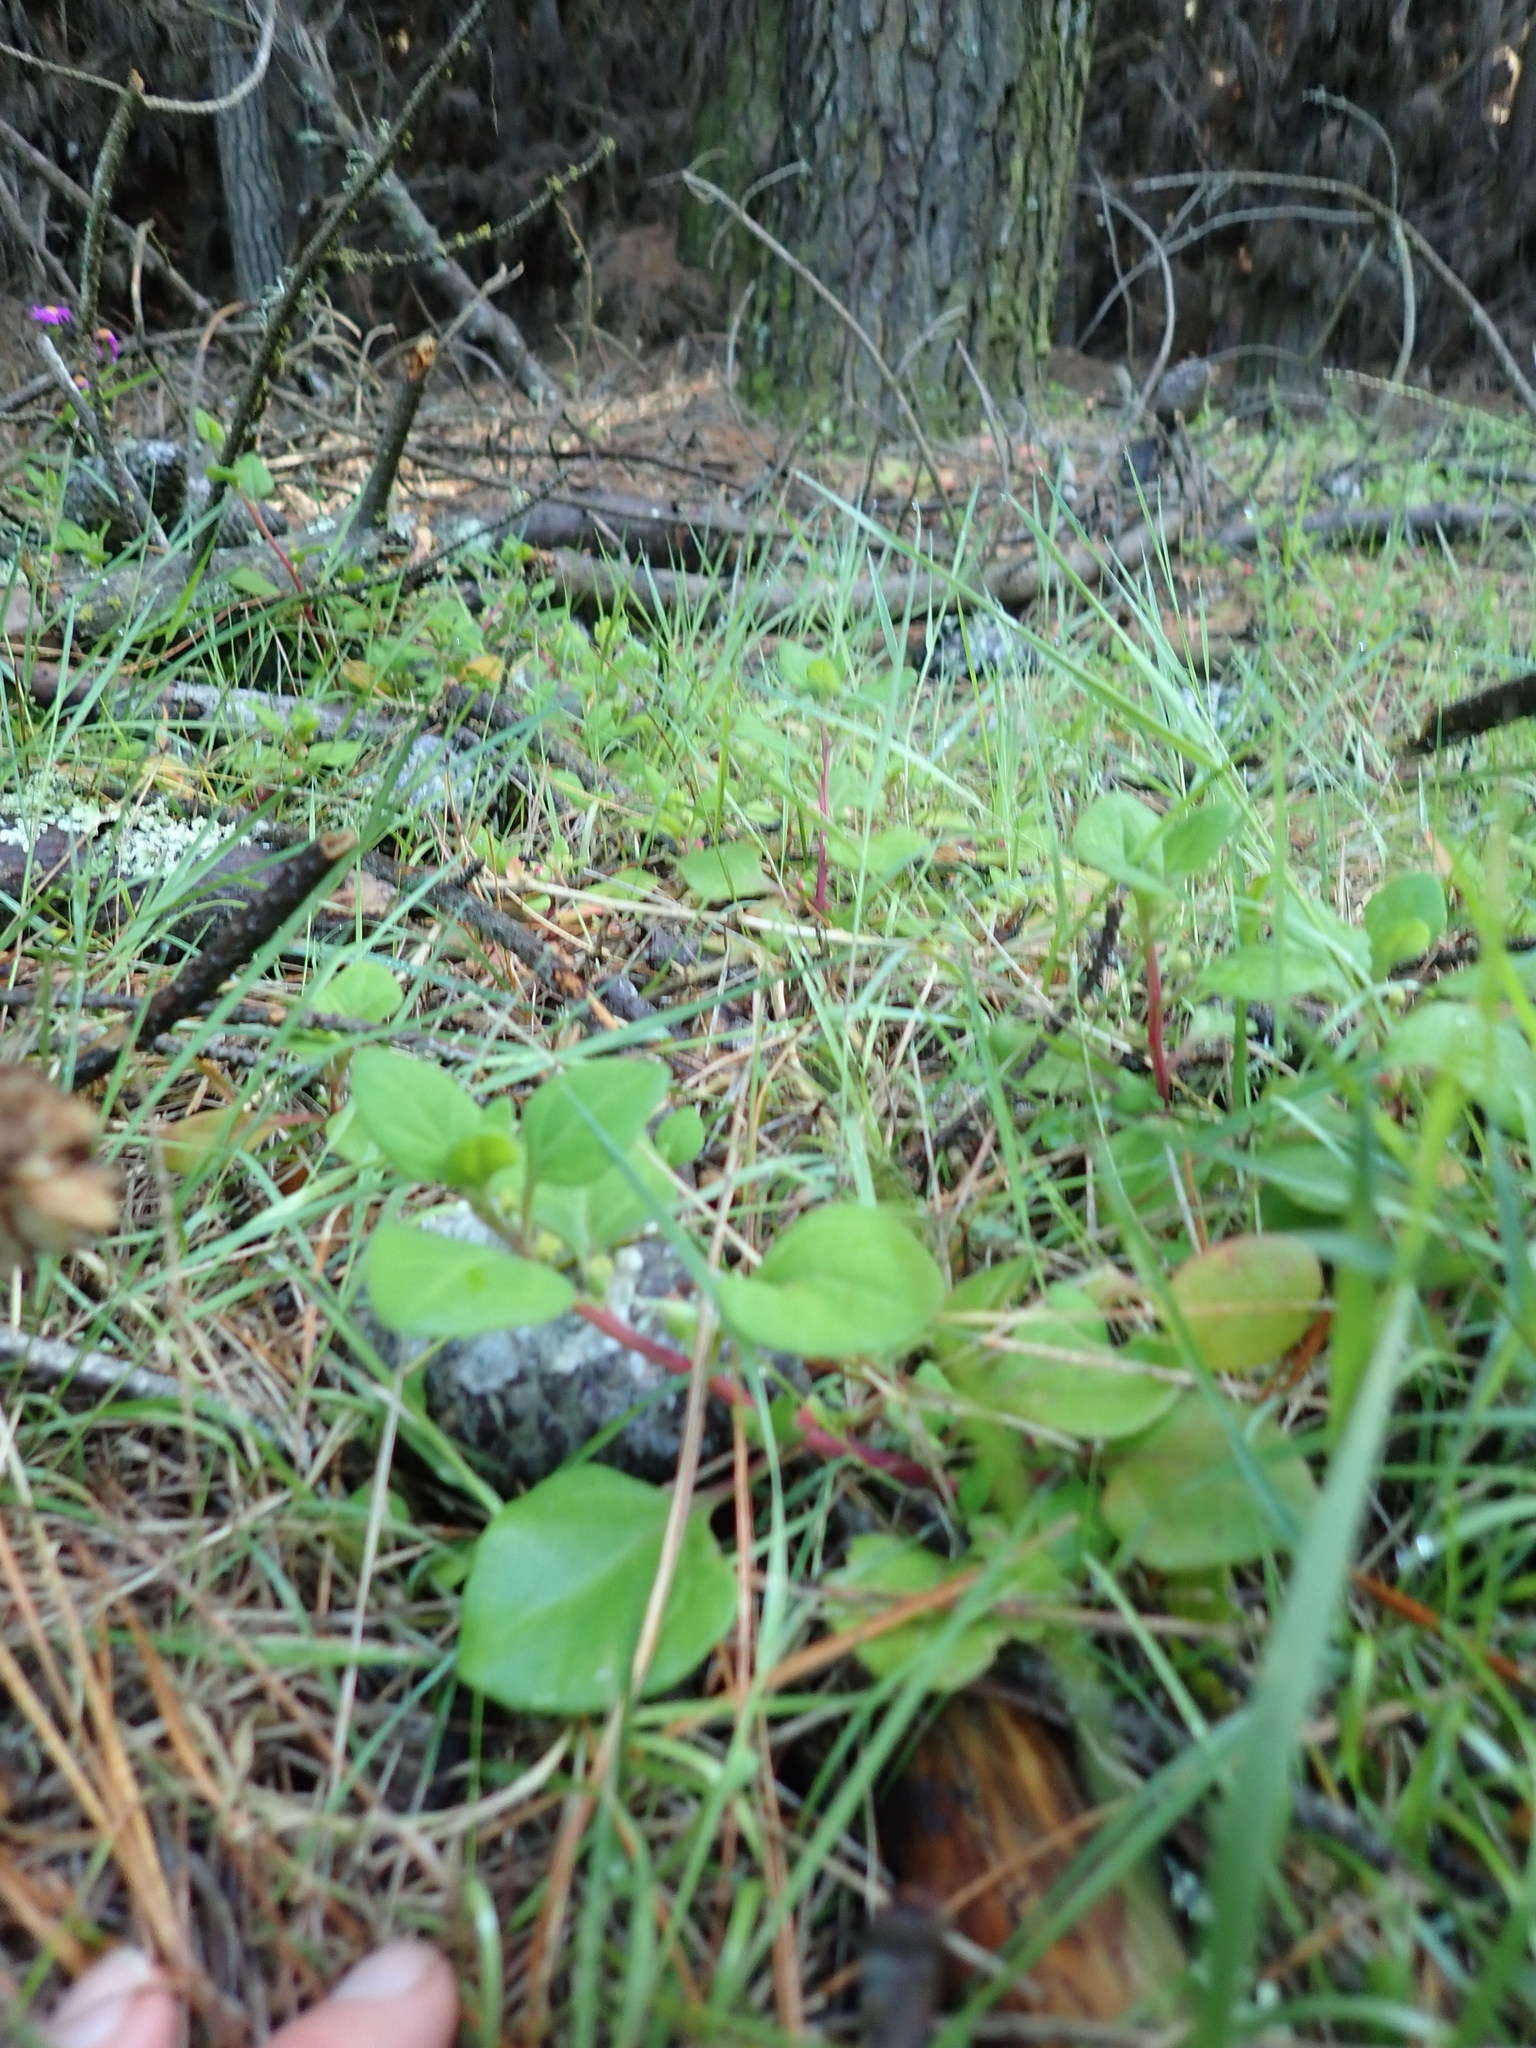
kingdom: Plantae
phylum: Tracheophyta
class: Magnoliopsida
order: Caryophyllales
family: Aizoaceae
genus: Tetragonia
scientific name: Tetragonia implexicoma
